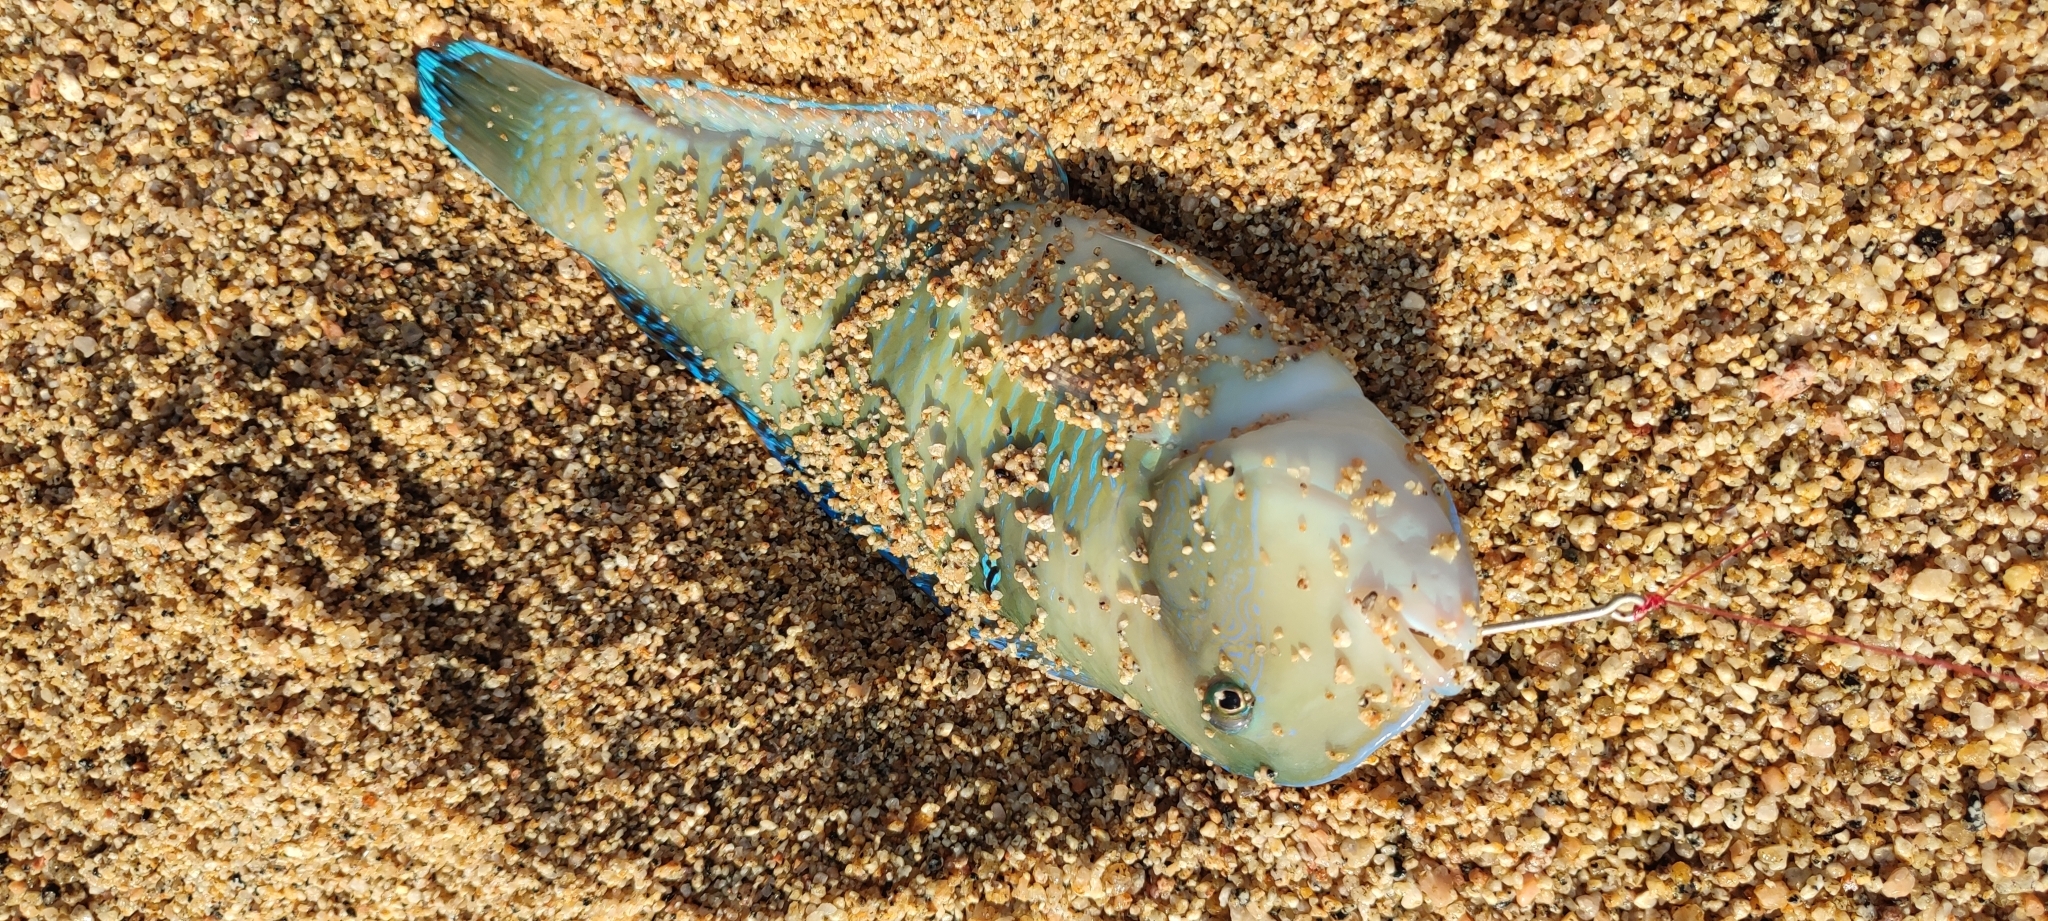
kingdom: Animalia
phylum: Chordata
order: Perciformes
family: Labridae
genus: Iniistius
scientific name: Iniistius pavo
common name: Peacock wrasse
